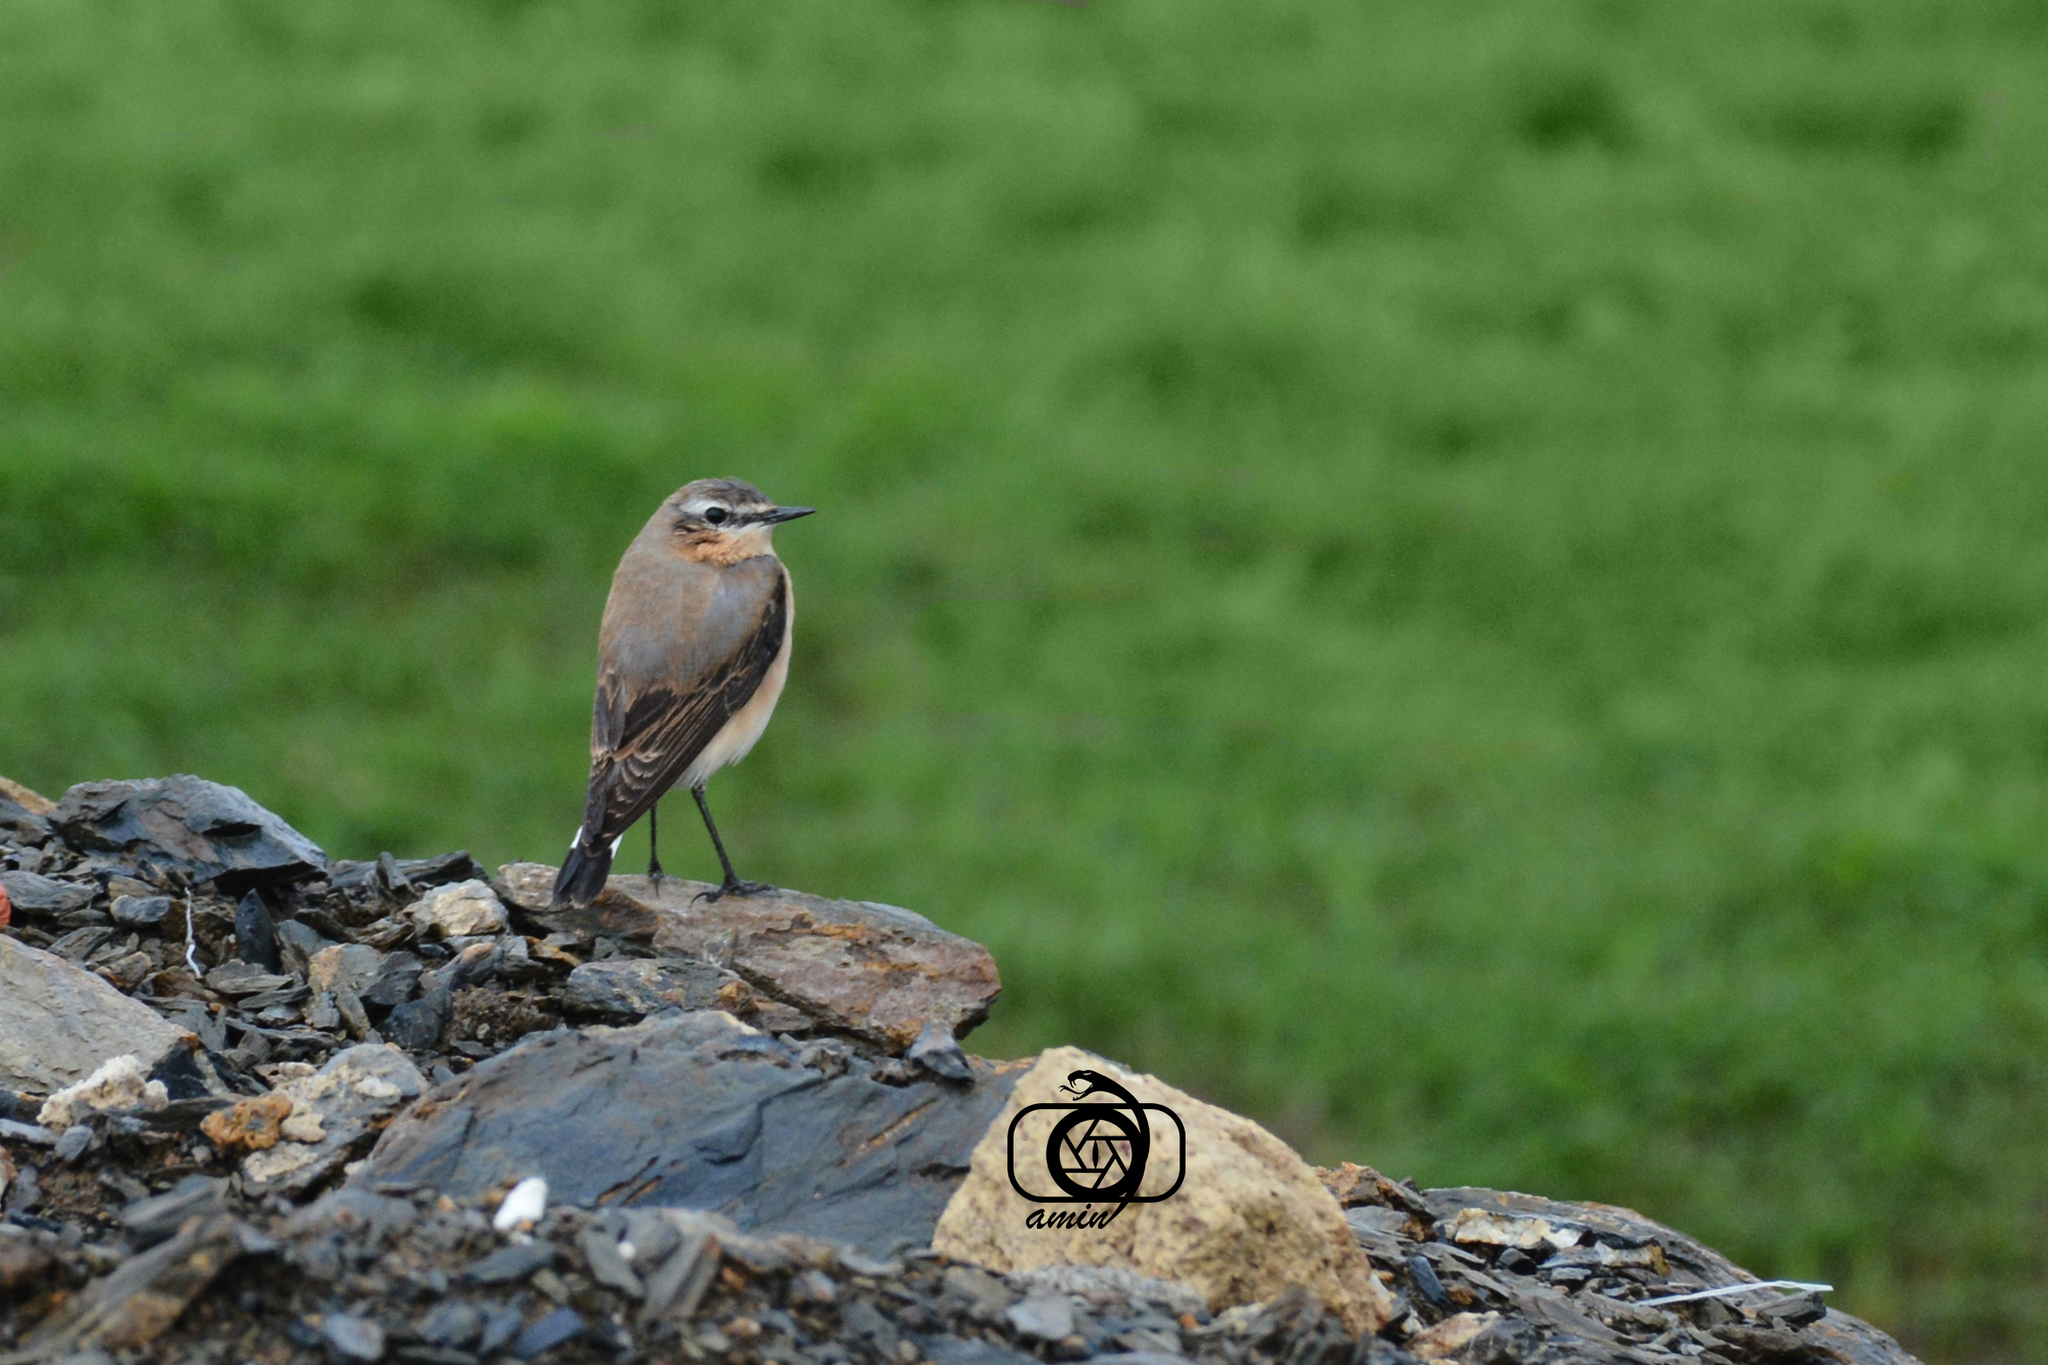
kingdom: Animalia
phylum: Chordata
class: Aves
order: Passeriformes
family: Muscicapidae
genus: Oenanthe
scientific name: Oenanthe oenanthe
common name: Northern wheatear
